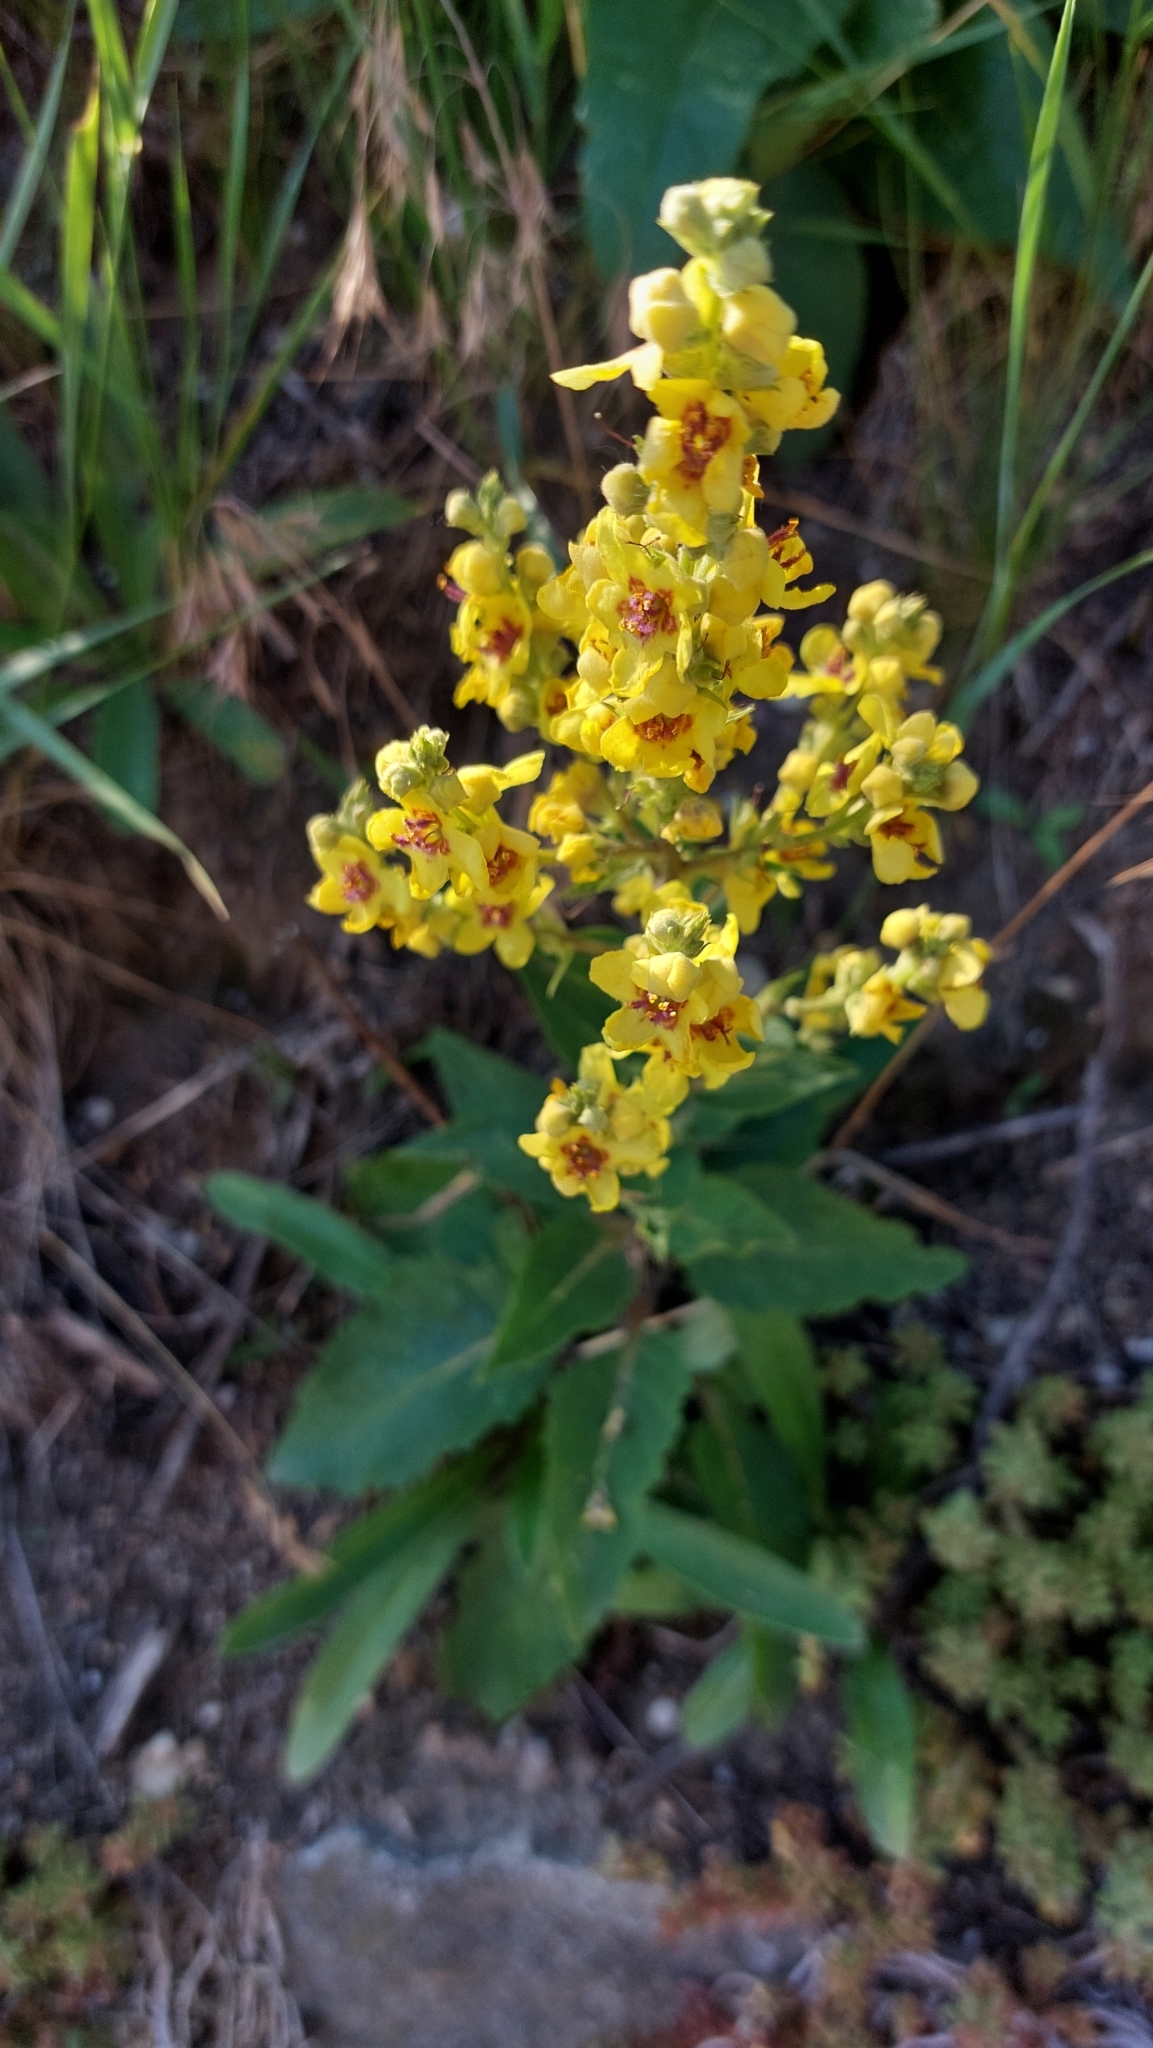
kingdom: Plantae
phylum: Tracheophyta
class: Magnoliopsida
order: Lamiales
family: Scrophulariaceae
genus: Verbascum
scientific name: Verbascum chaixii
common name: Nettle-leaved mullein
